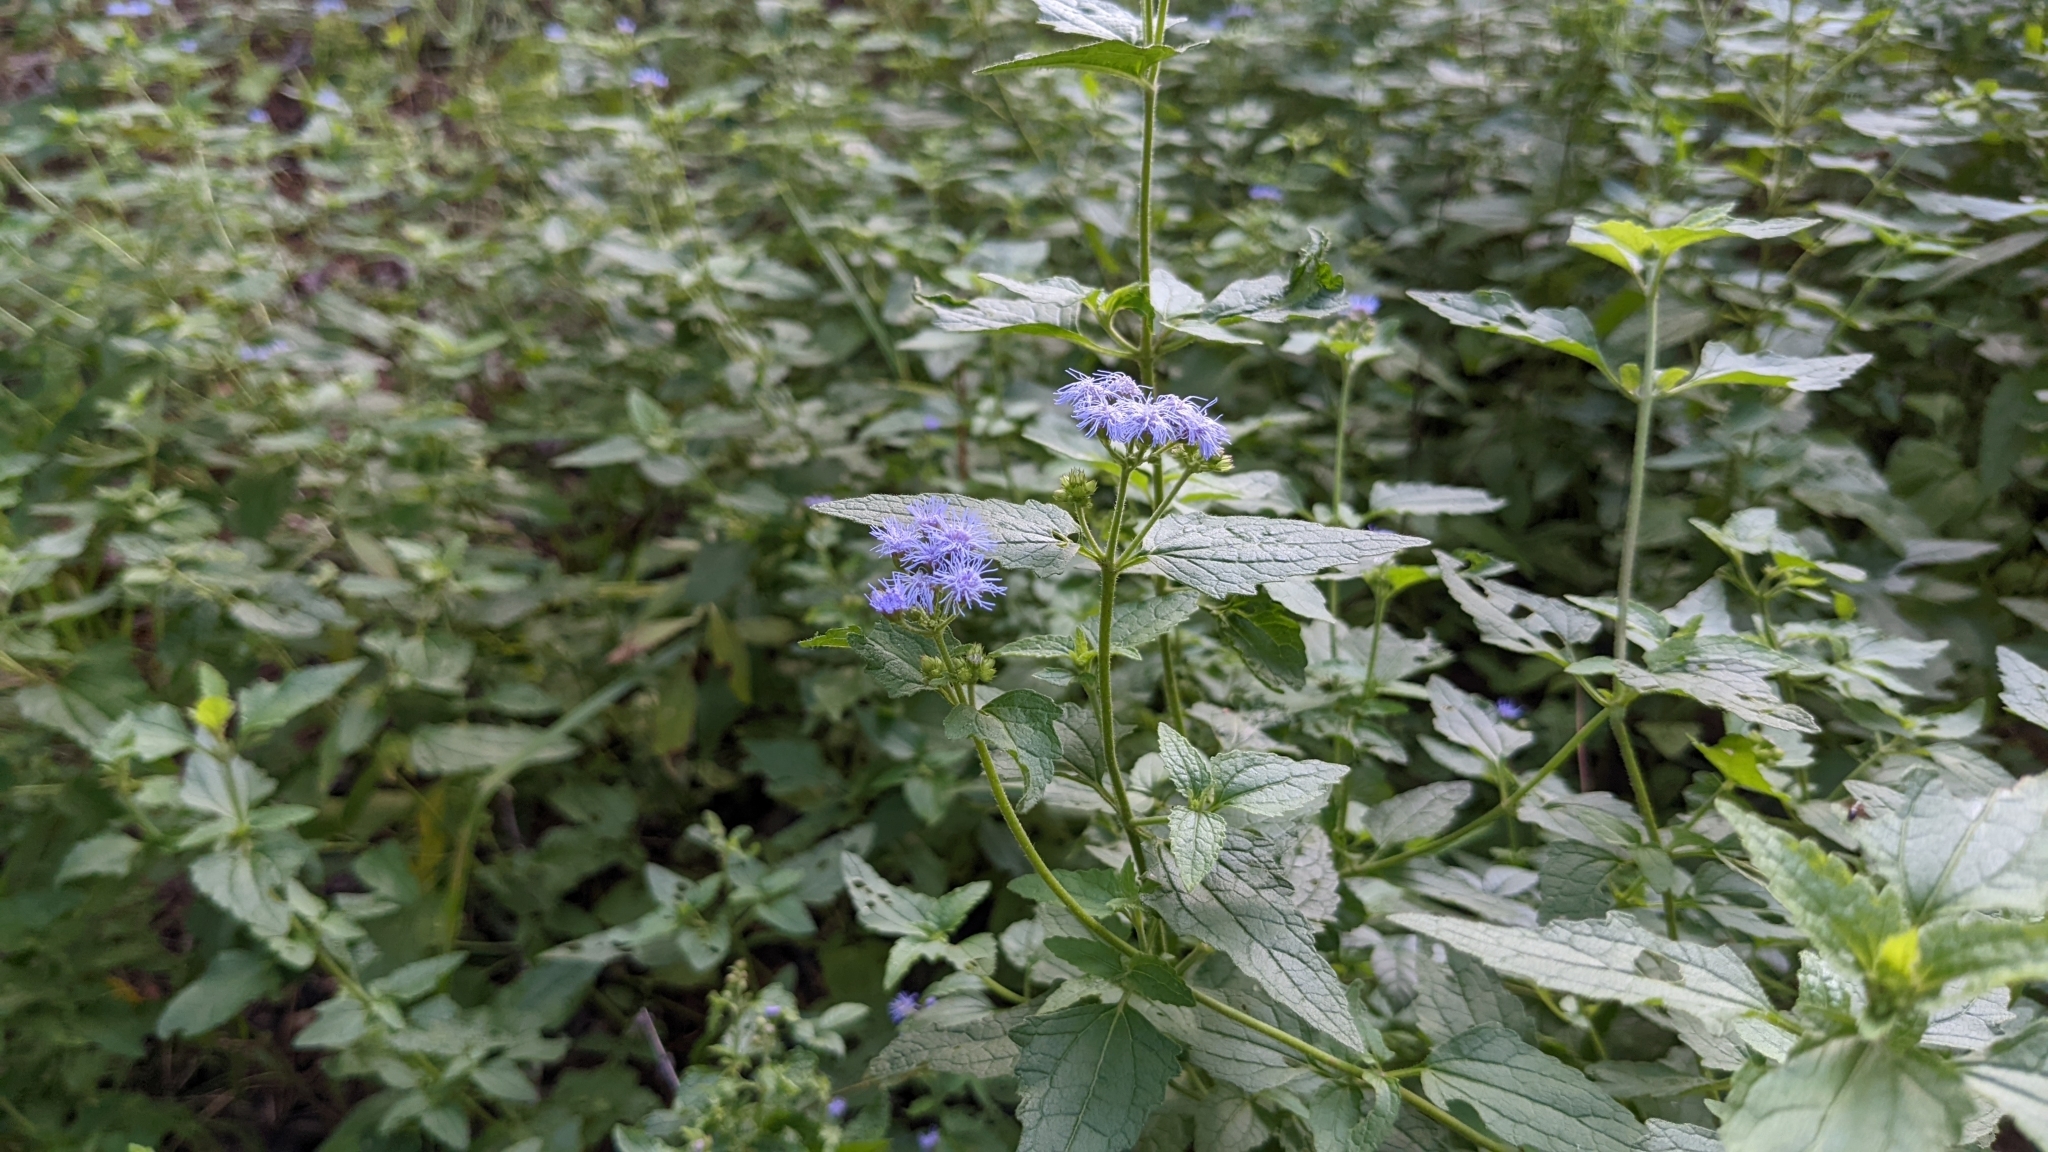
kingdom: Plantae
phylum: Tracheophyta
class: Magnoliopsida
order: Asterales
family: Asteraceae
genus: Conoclinium
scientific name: Conoclinium coelestinum
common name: Blue mistflower
